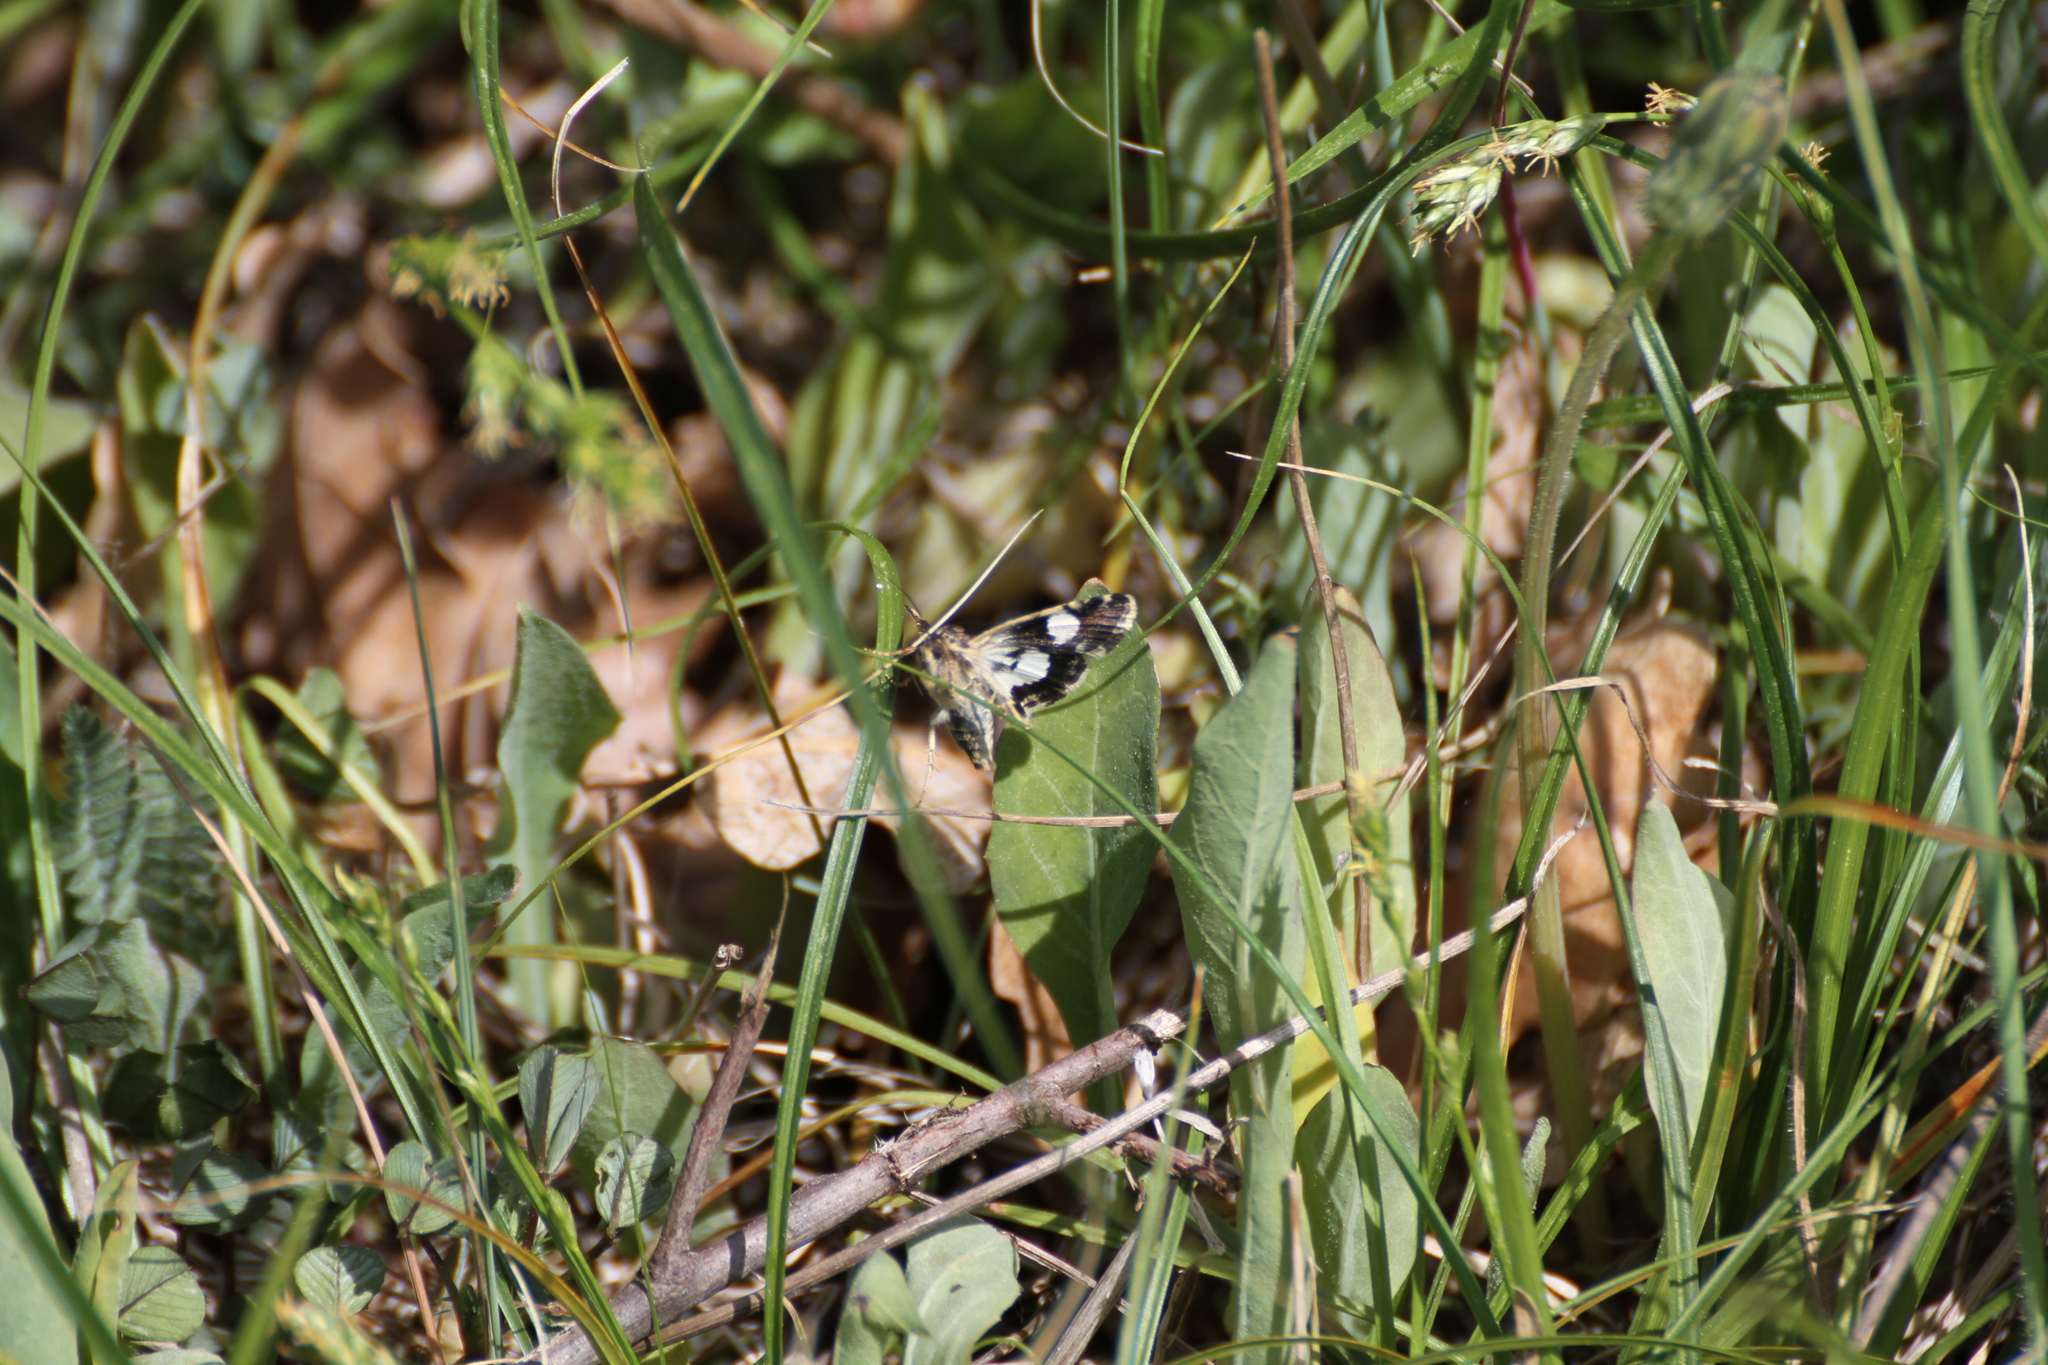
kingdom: Animalia
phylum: Arthropoda
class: Insecta
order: Lepidoptera
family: Erebidae
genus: Tyta
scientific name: Tyta luctuosa
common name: Four-spotted
